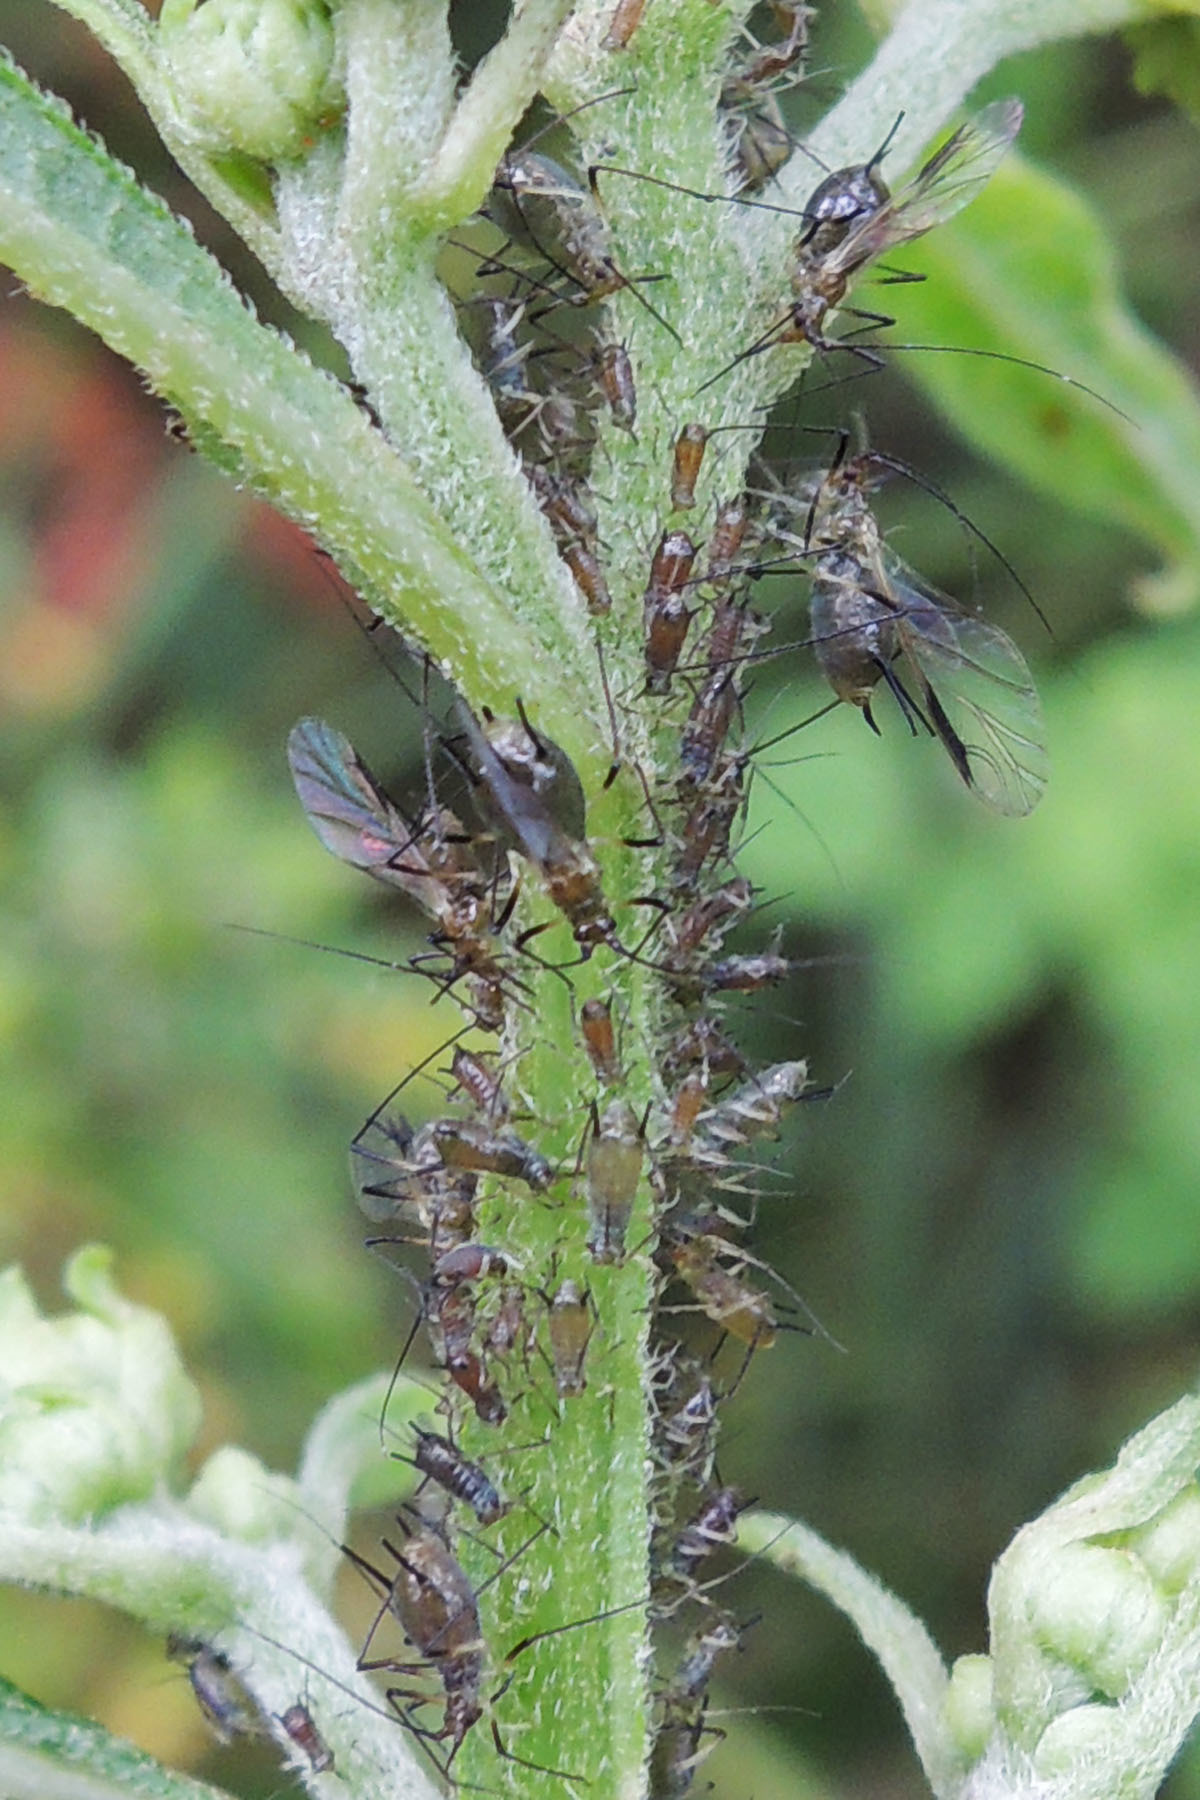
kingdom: Animalia
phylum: Arthropoda
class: Insecta
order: Hemiptera
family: Aphididae
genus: Uroleucon
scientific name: Uroleucon rurale
